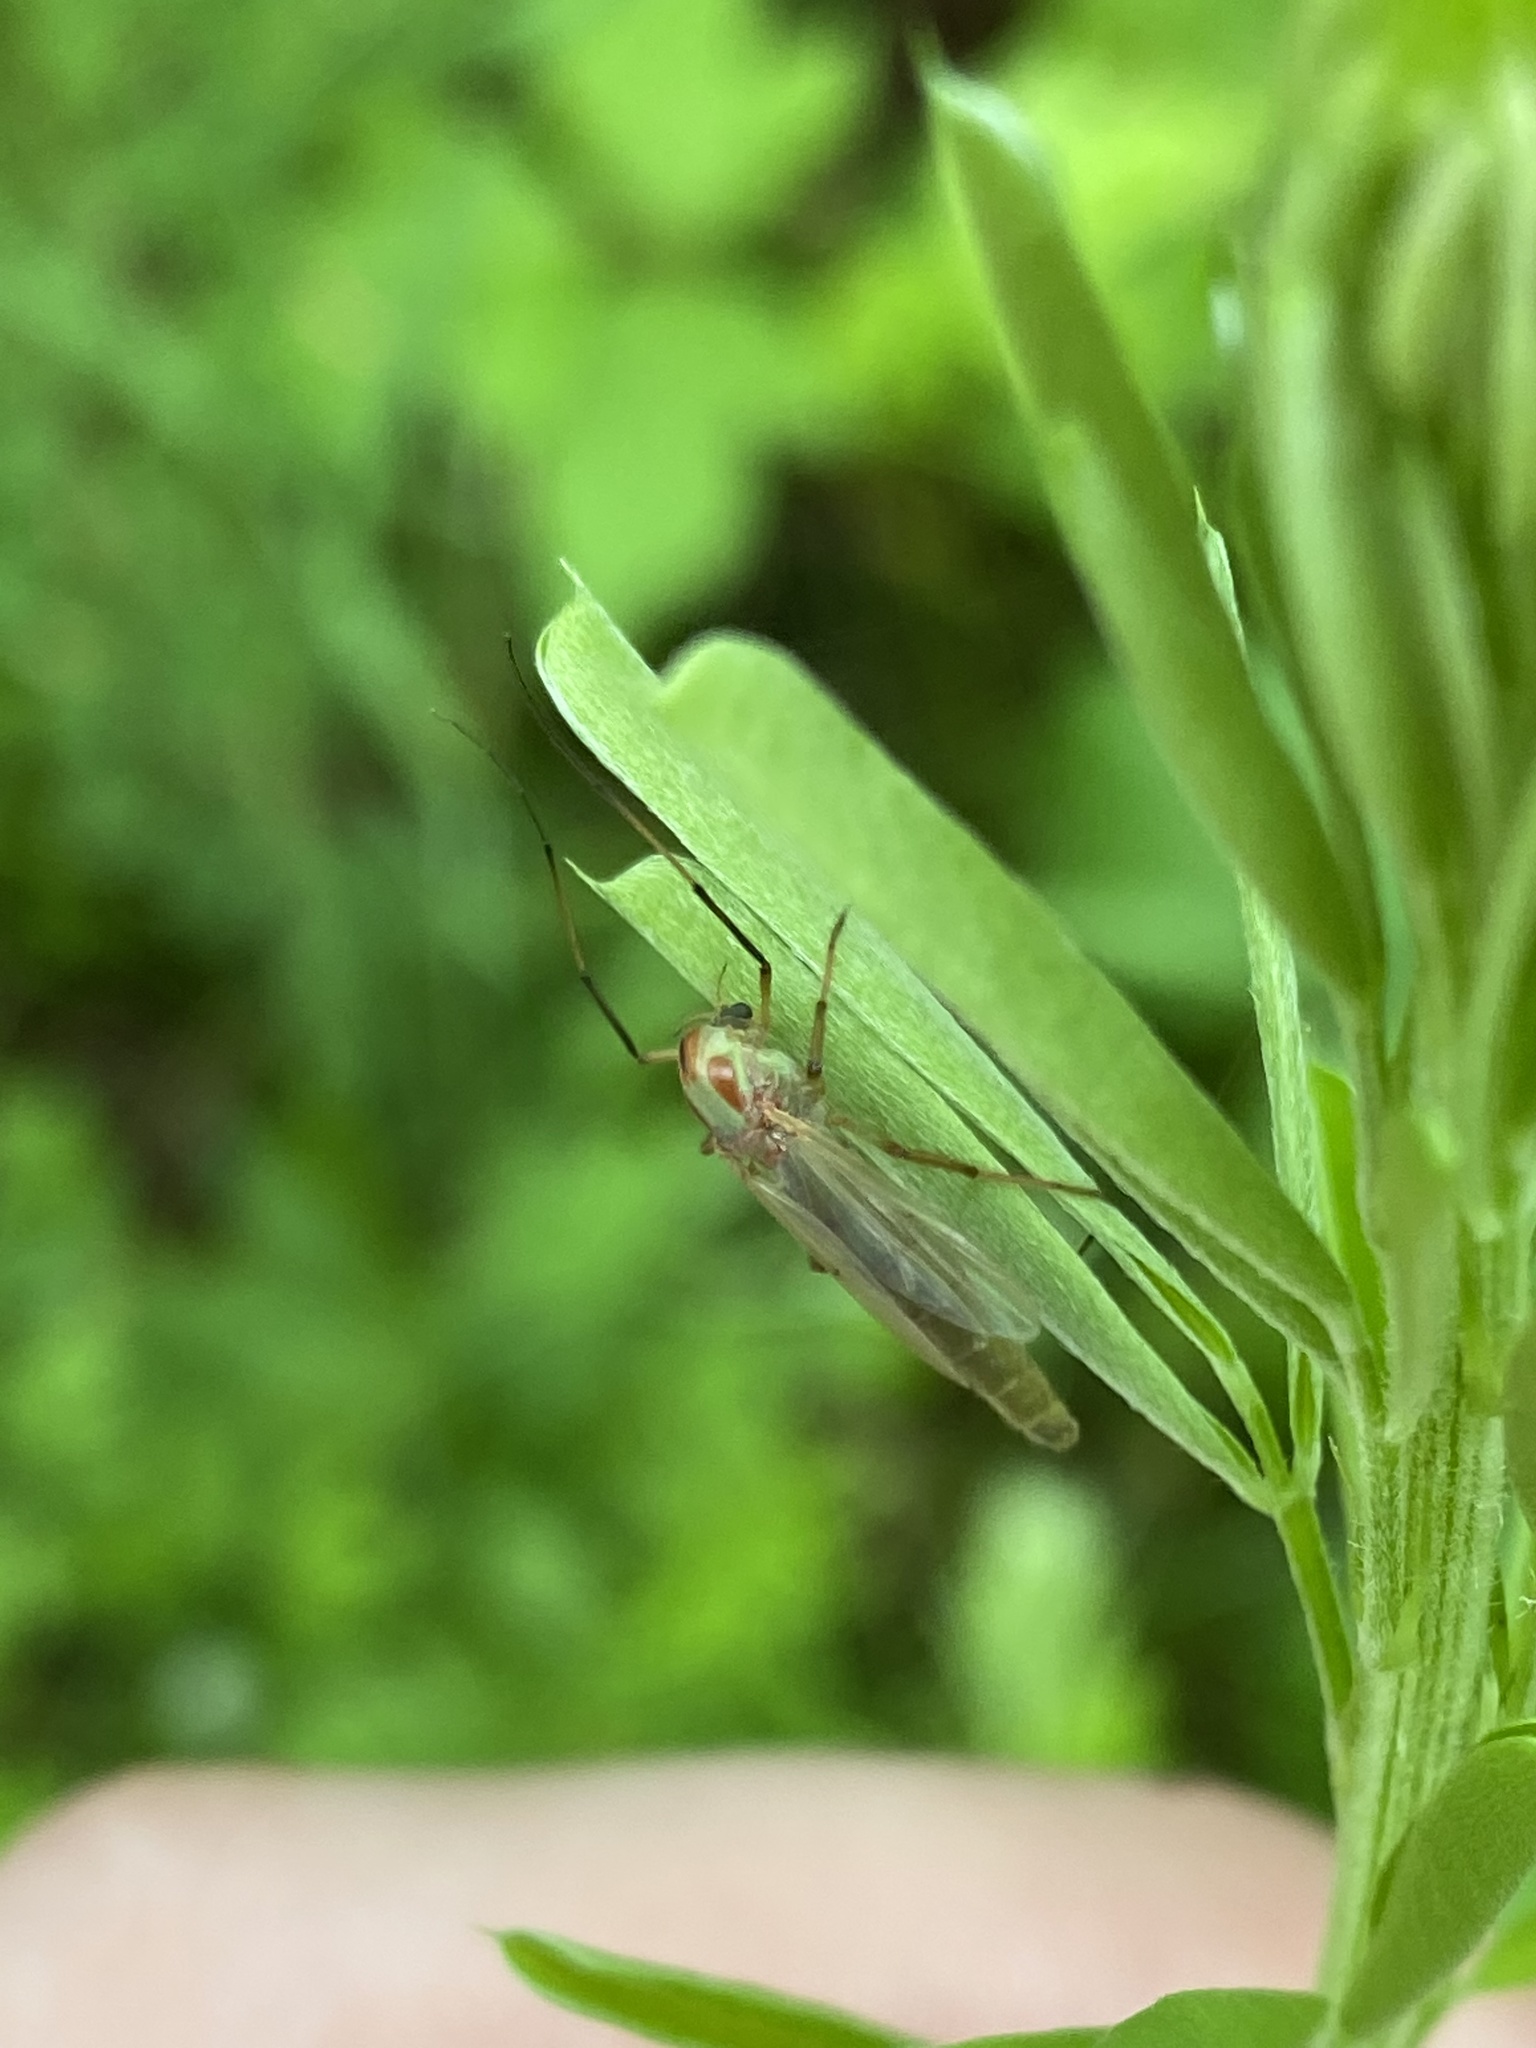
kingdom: Animalia
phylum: Arthropoda
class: Insecta
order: Diptera
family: Chironomidae
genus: Axarus
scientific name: Axarus
